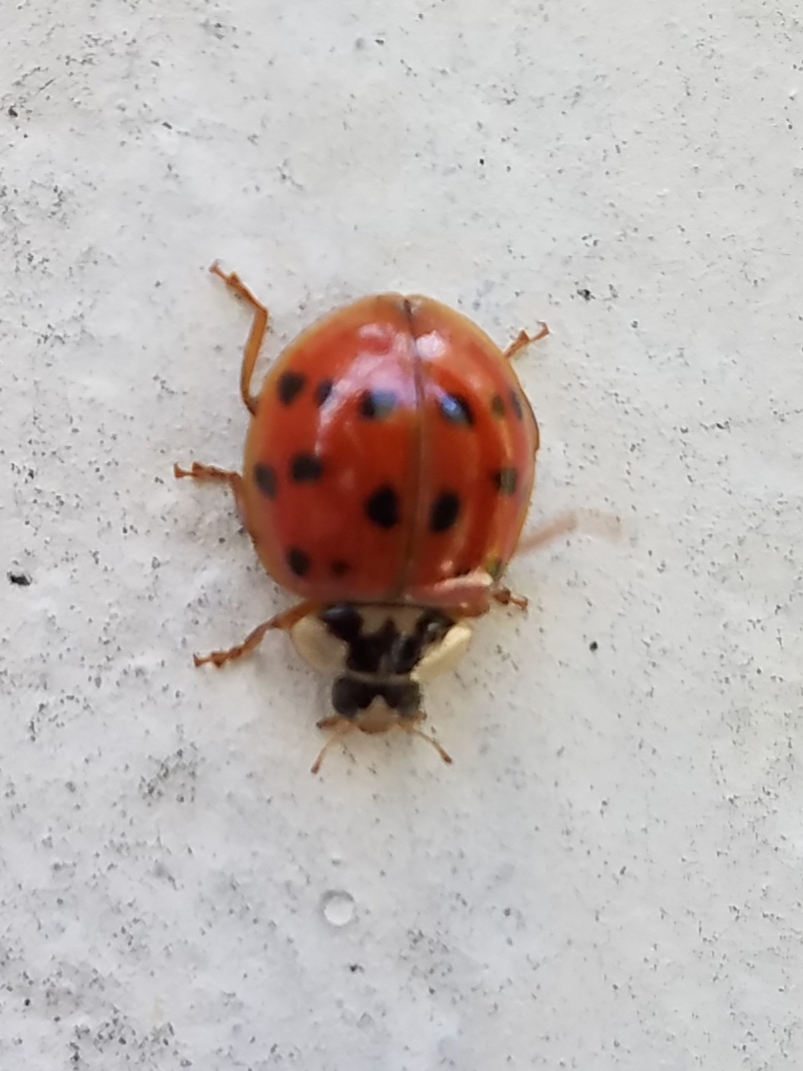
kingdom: Animalia
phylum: Arthropoda
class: Insecta
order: Coleoptera
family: Coccinellidae
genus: Harmonia
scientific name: Harmonia axyridis
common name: Harlequin ladybird
